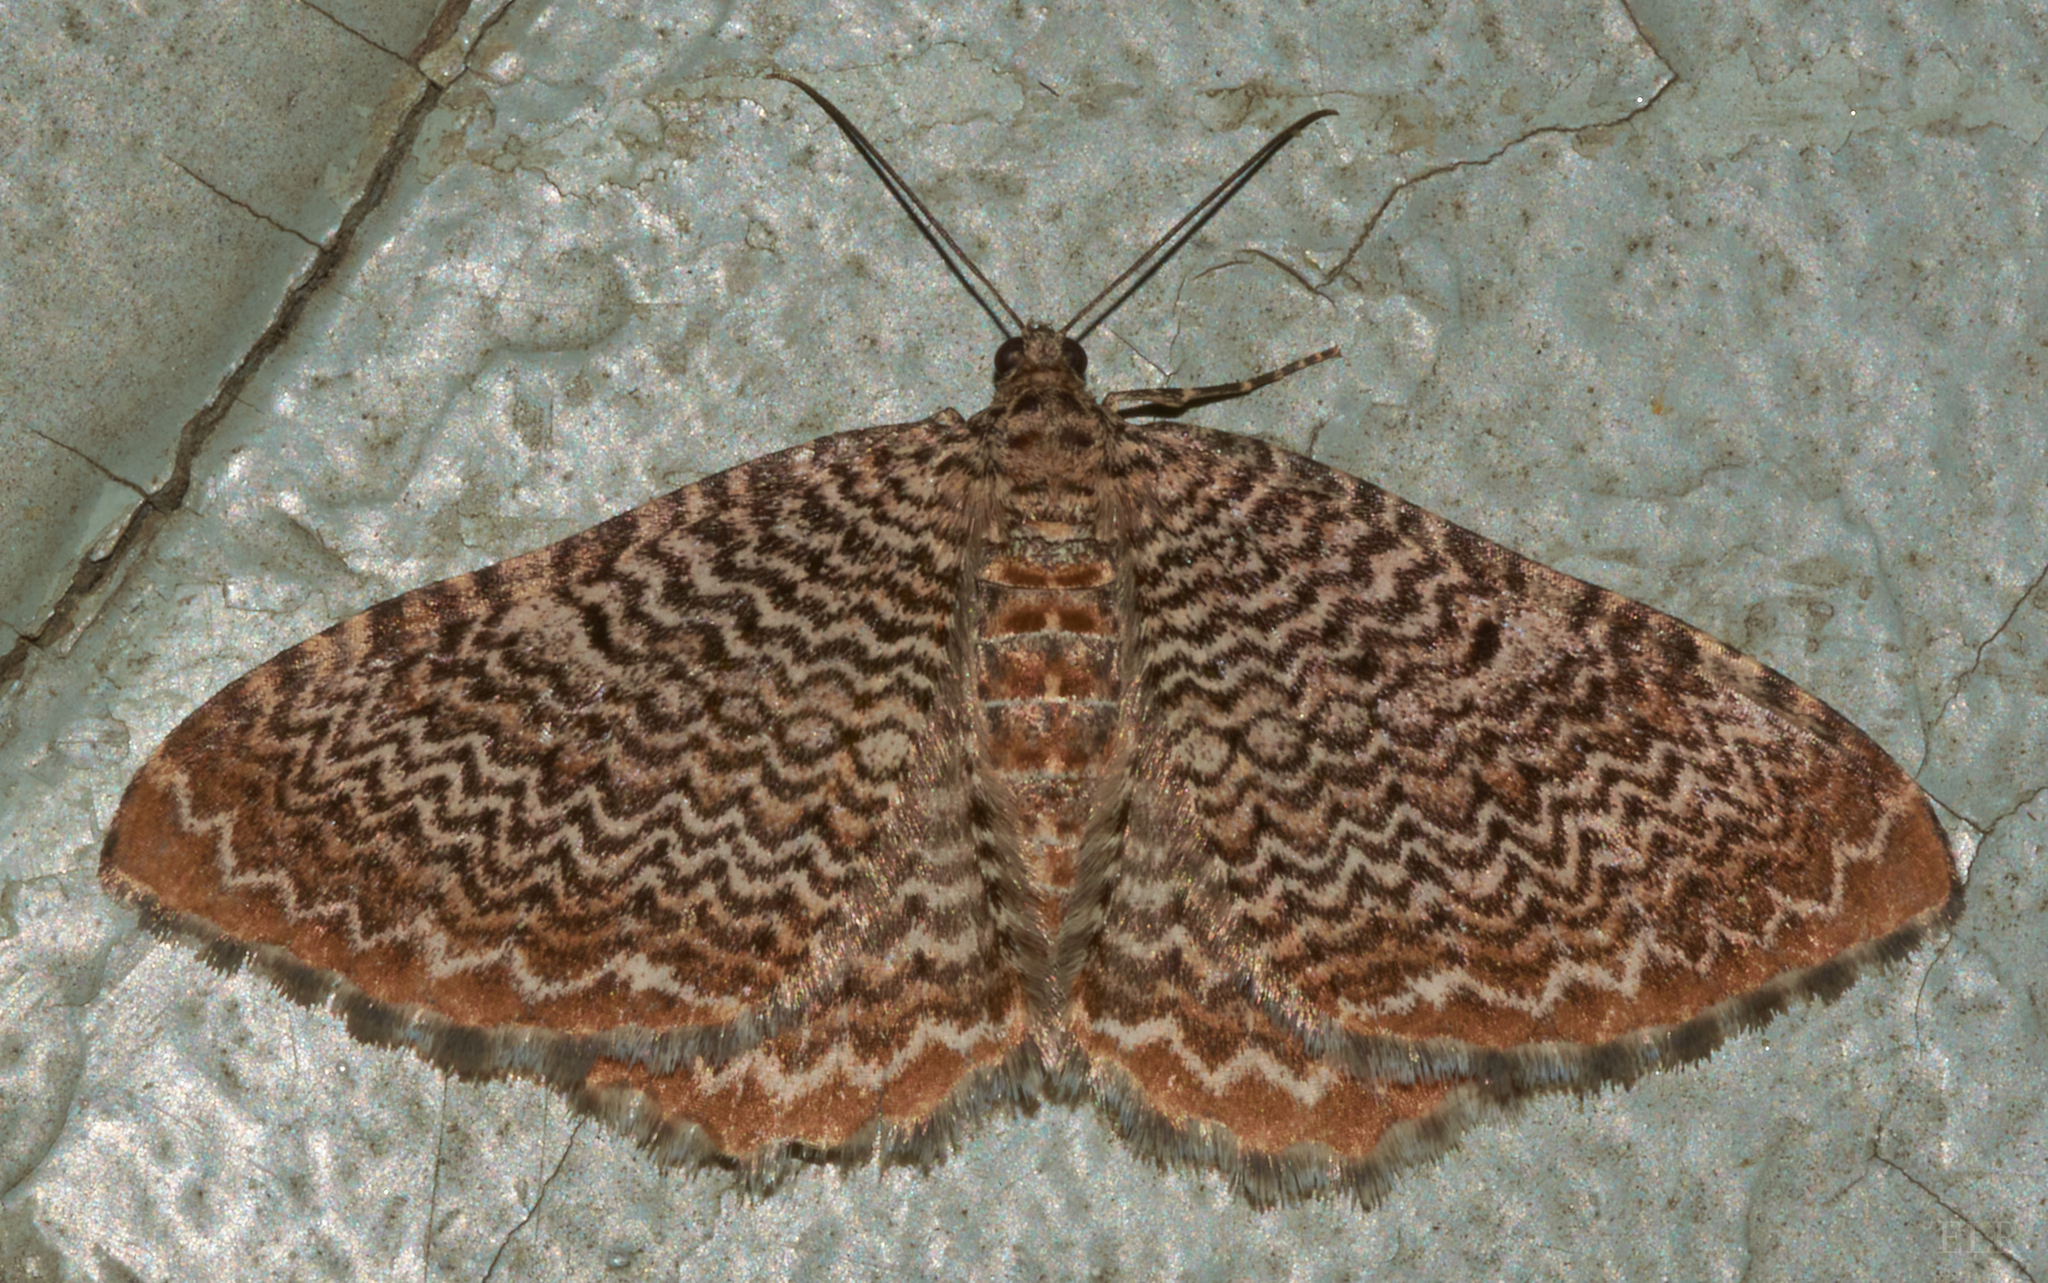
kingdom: Animalia
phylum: Arthropoda
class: Insecta
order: Lepidoptera
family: Geometridae
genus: Rheumaptera
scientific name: Rheumaptera
